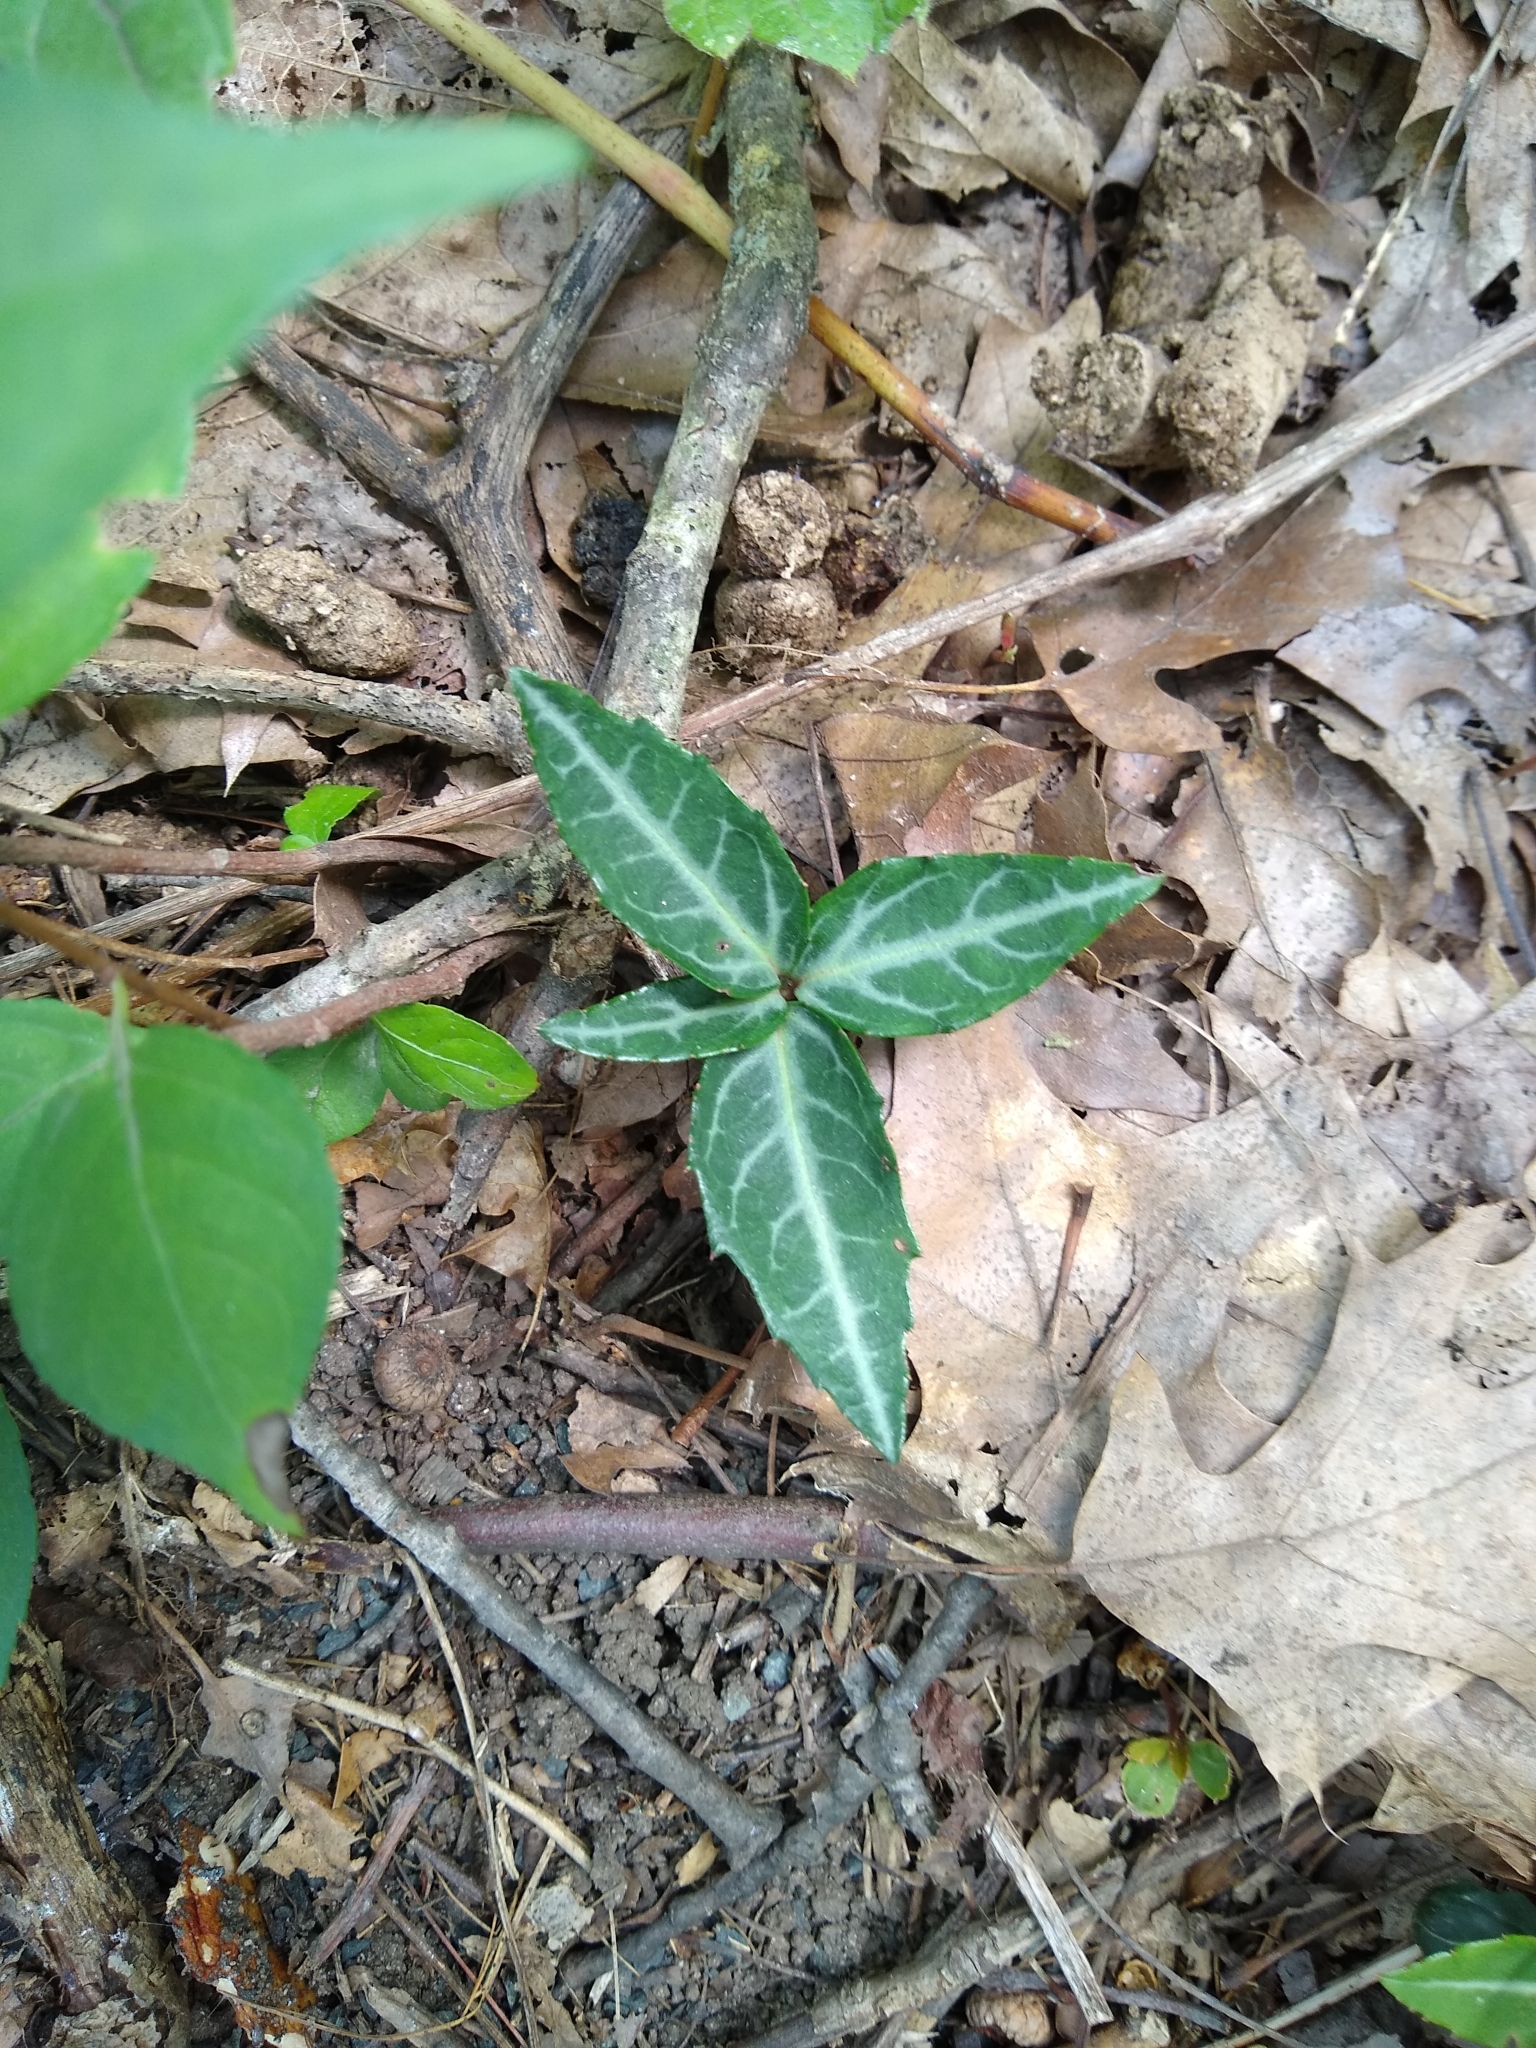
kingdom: Plantae
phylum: Tracheophyta
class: Magnoliopsida
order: Ericales
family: Ericaceae
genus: Chimaphila
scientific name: Chimaphila maculata
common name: Spotted pipsissewa
